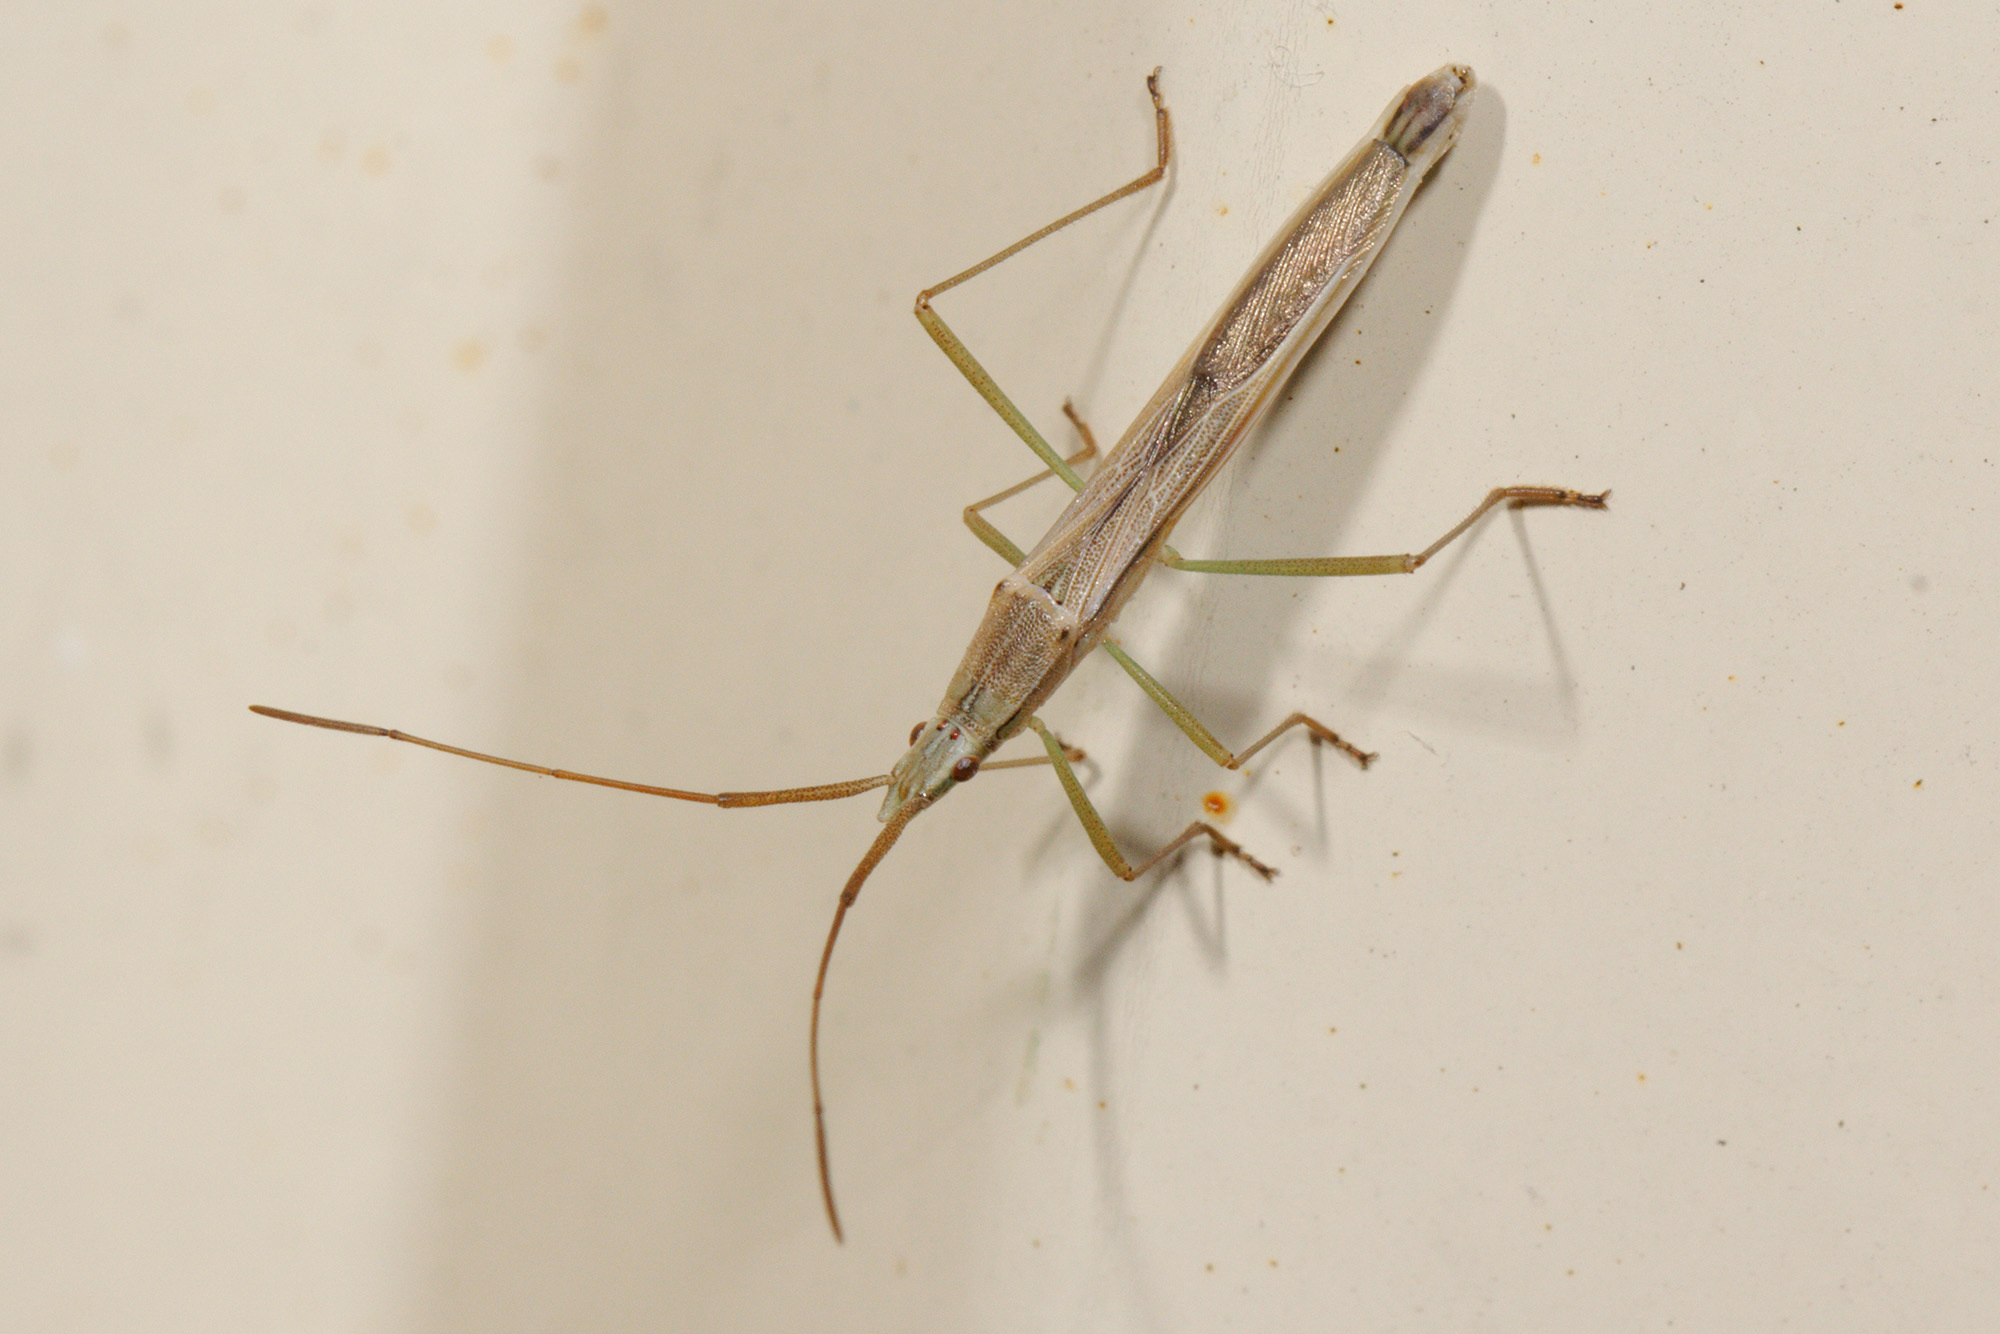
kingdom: Animalia
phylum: Arthropoda
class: Insecta
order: Hemiptera
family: Alydidae
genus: Mutusca
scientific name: Mutusca brevicornis
